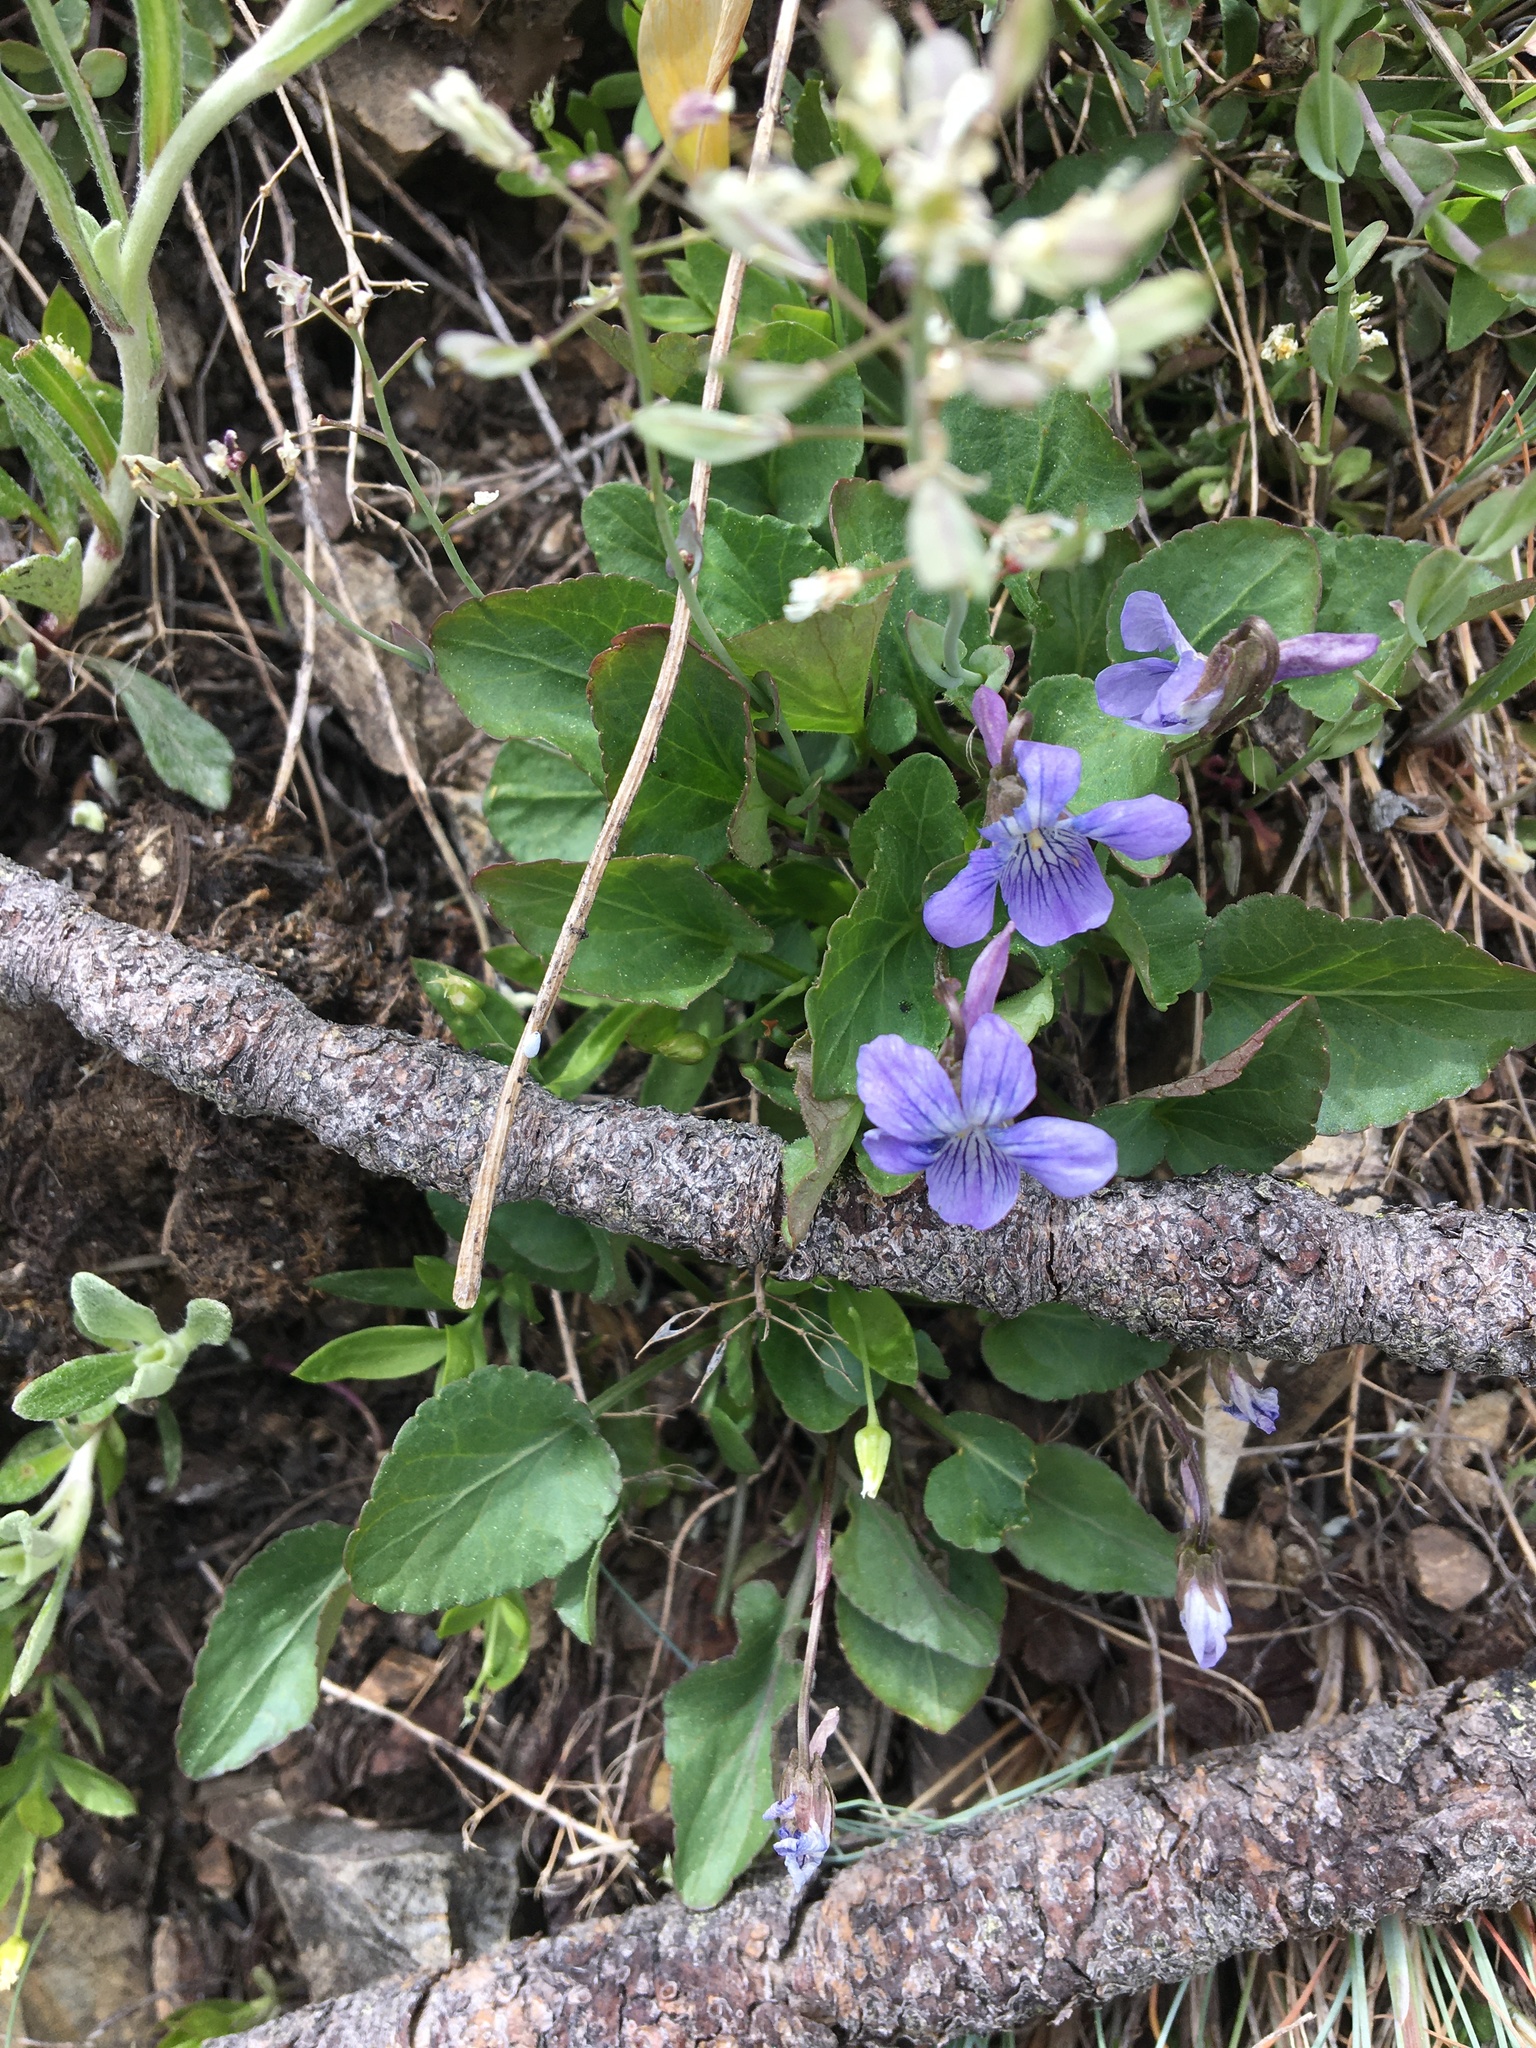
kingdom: Plantae
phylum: Tracheophyta
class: Magnoliopsida
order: Malpighiales
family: Violaceae
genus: Viola
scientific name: Viola adunca
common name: Sand violet
